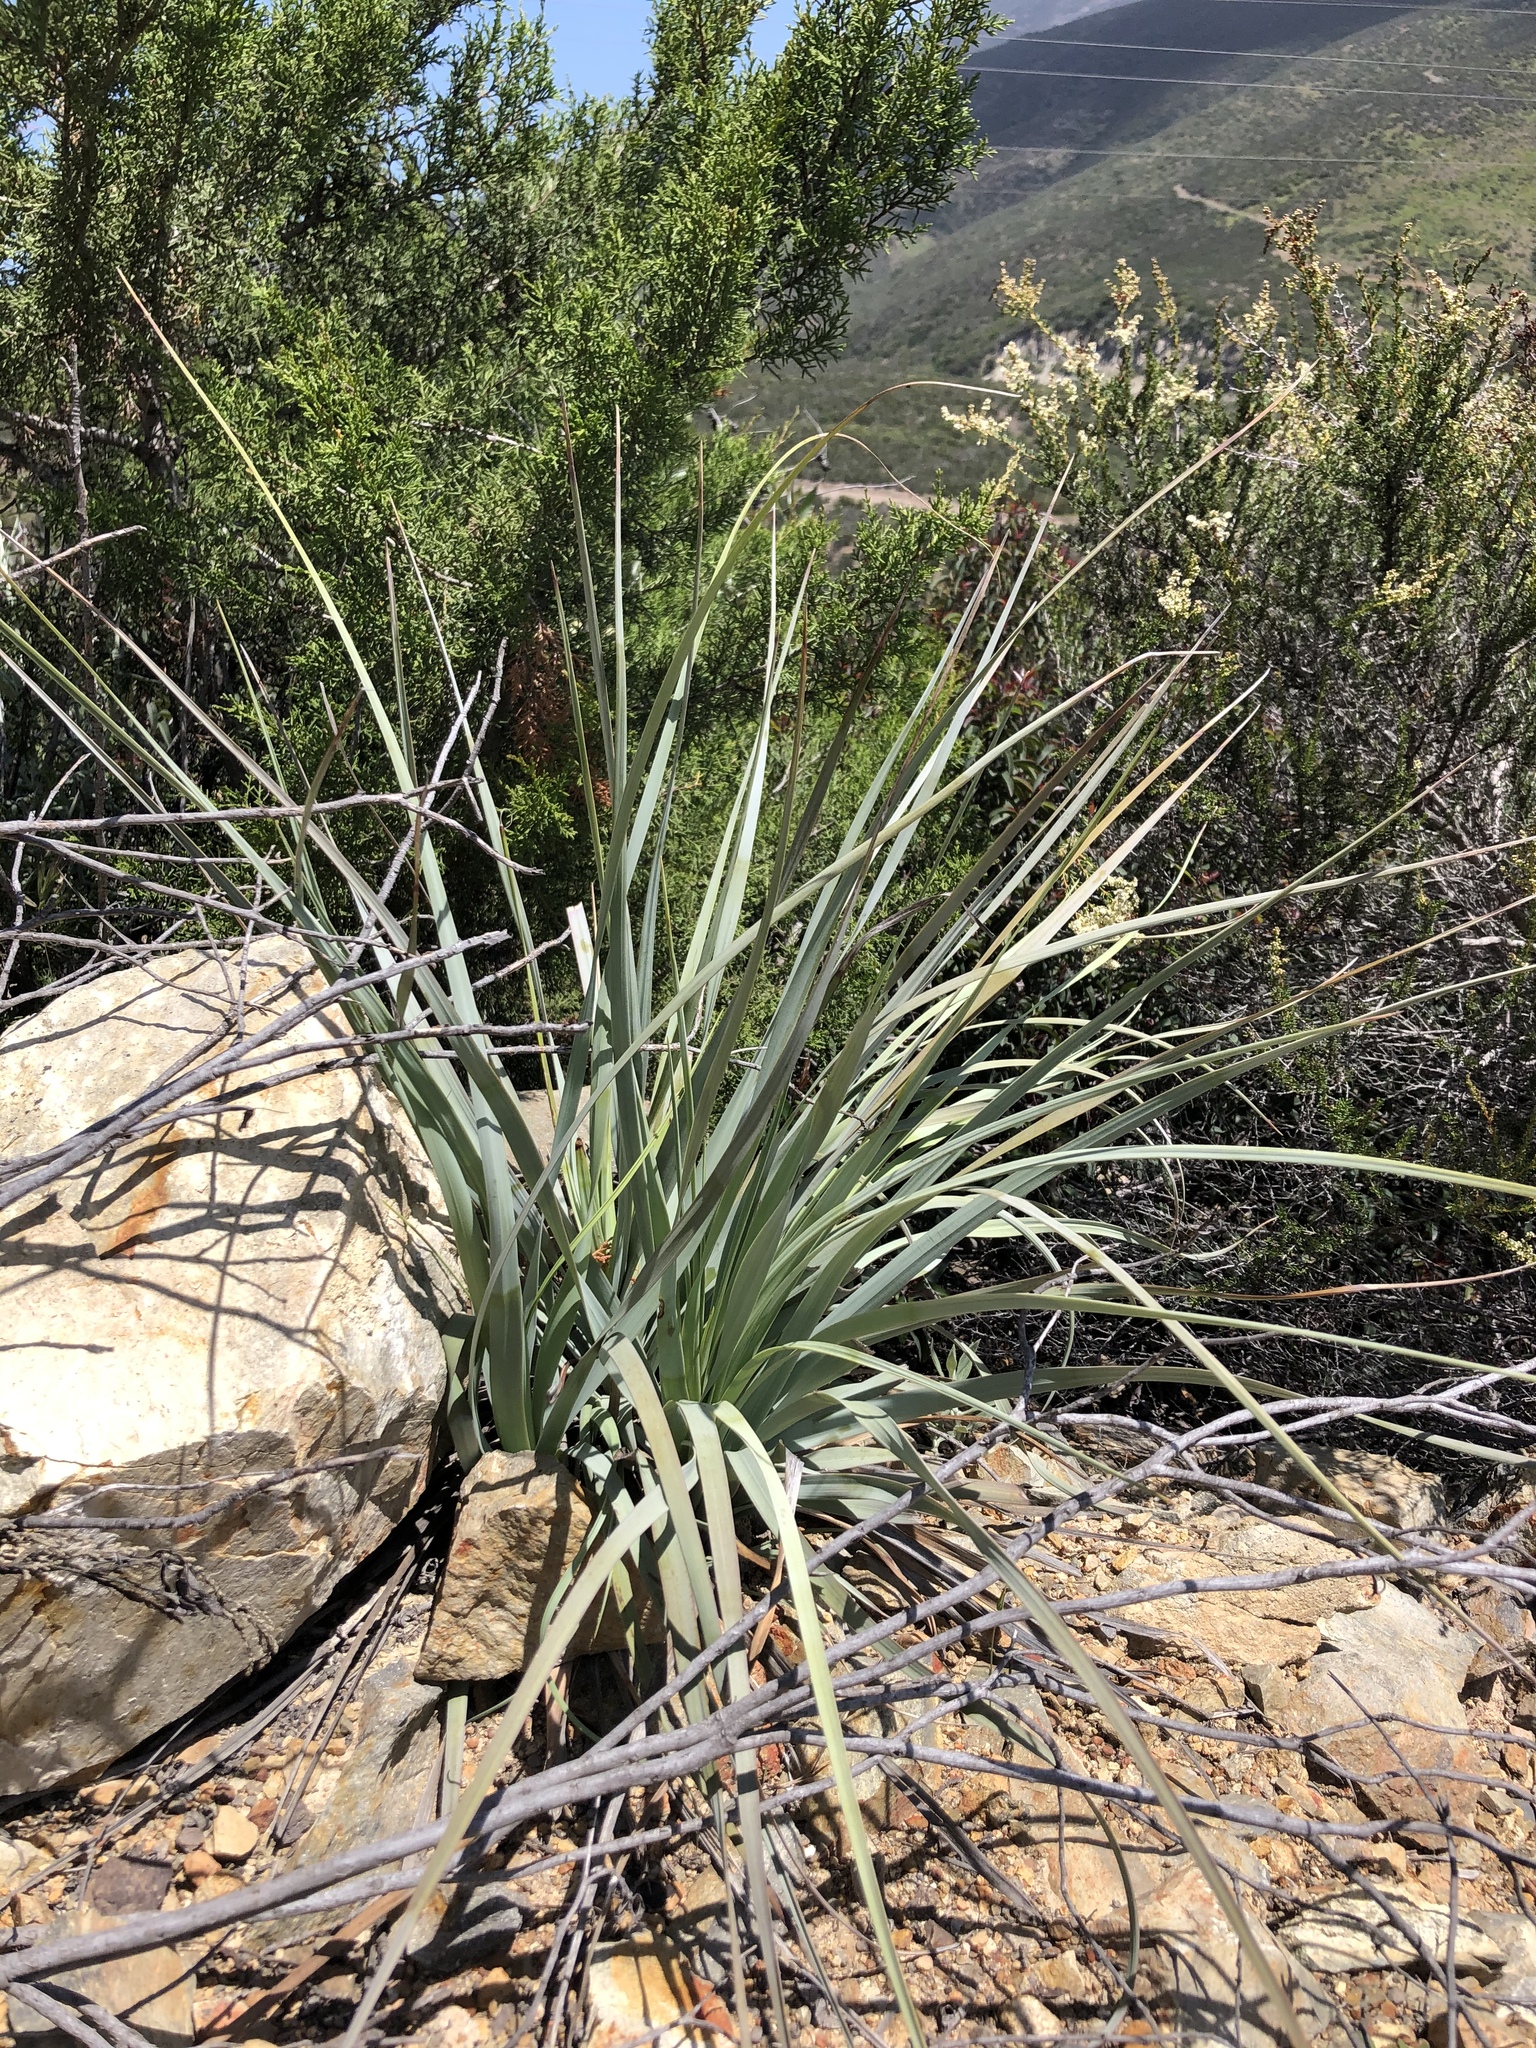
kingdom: Plantae
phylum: Tracheophyta
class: Liliopsida
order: Asparagales
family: Asparagaceae
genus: Nolina
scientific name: Nolina interrata
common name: Dehesa bear-grass
